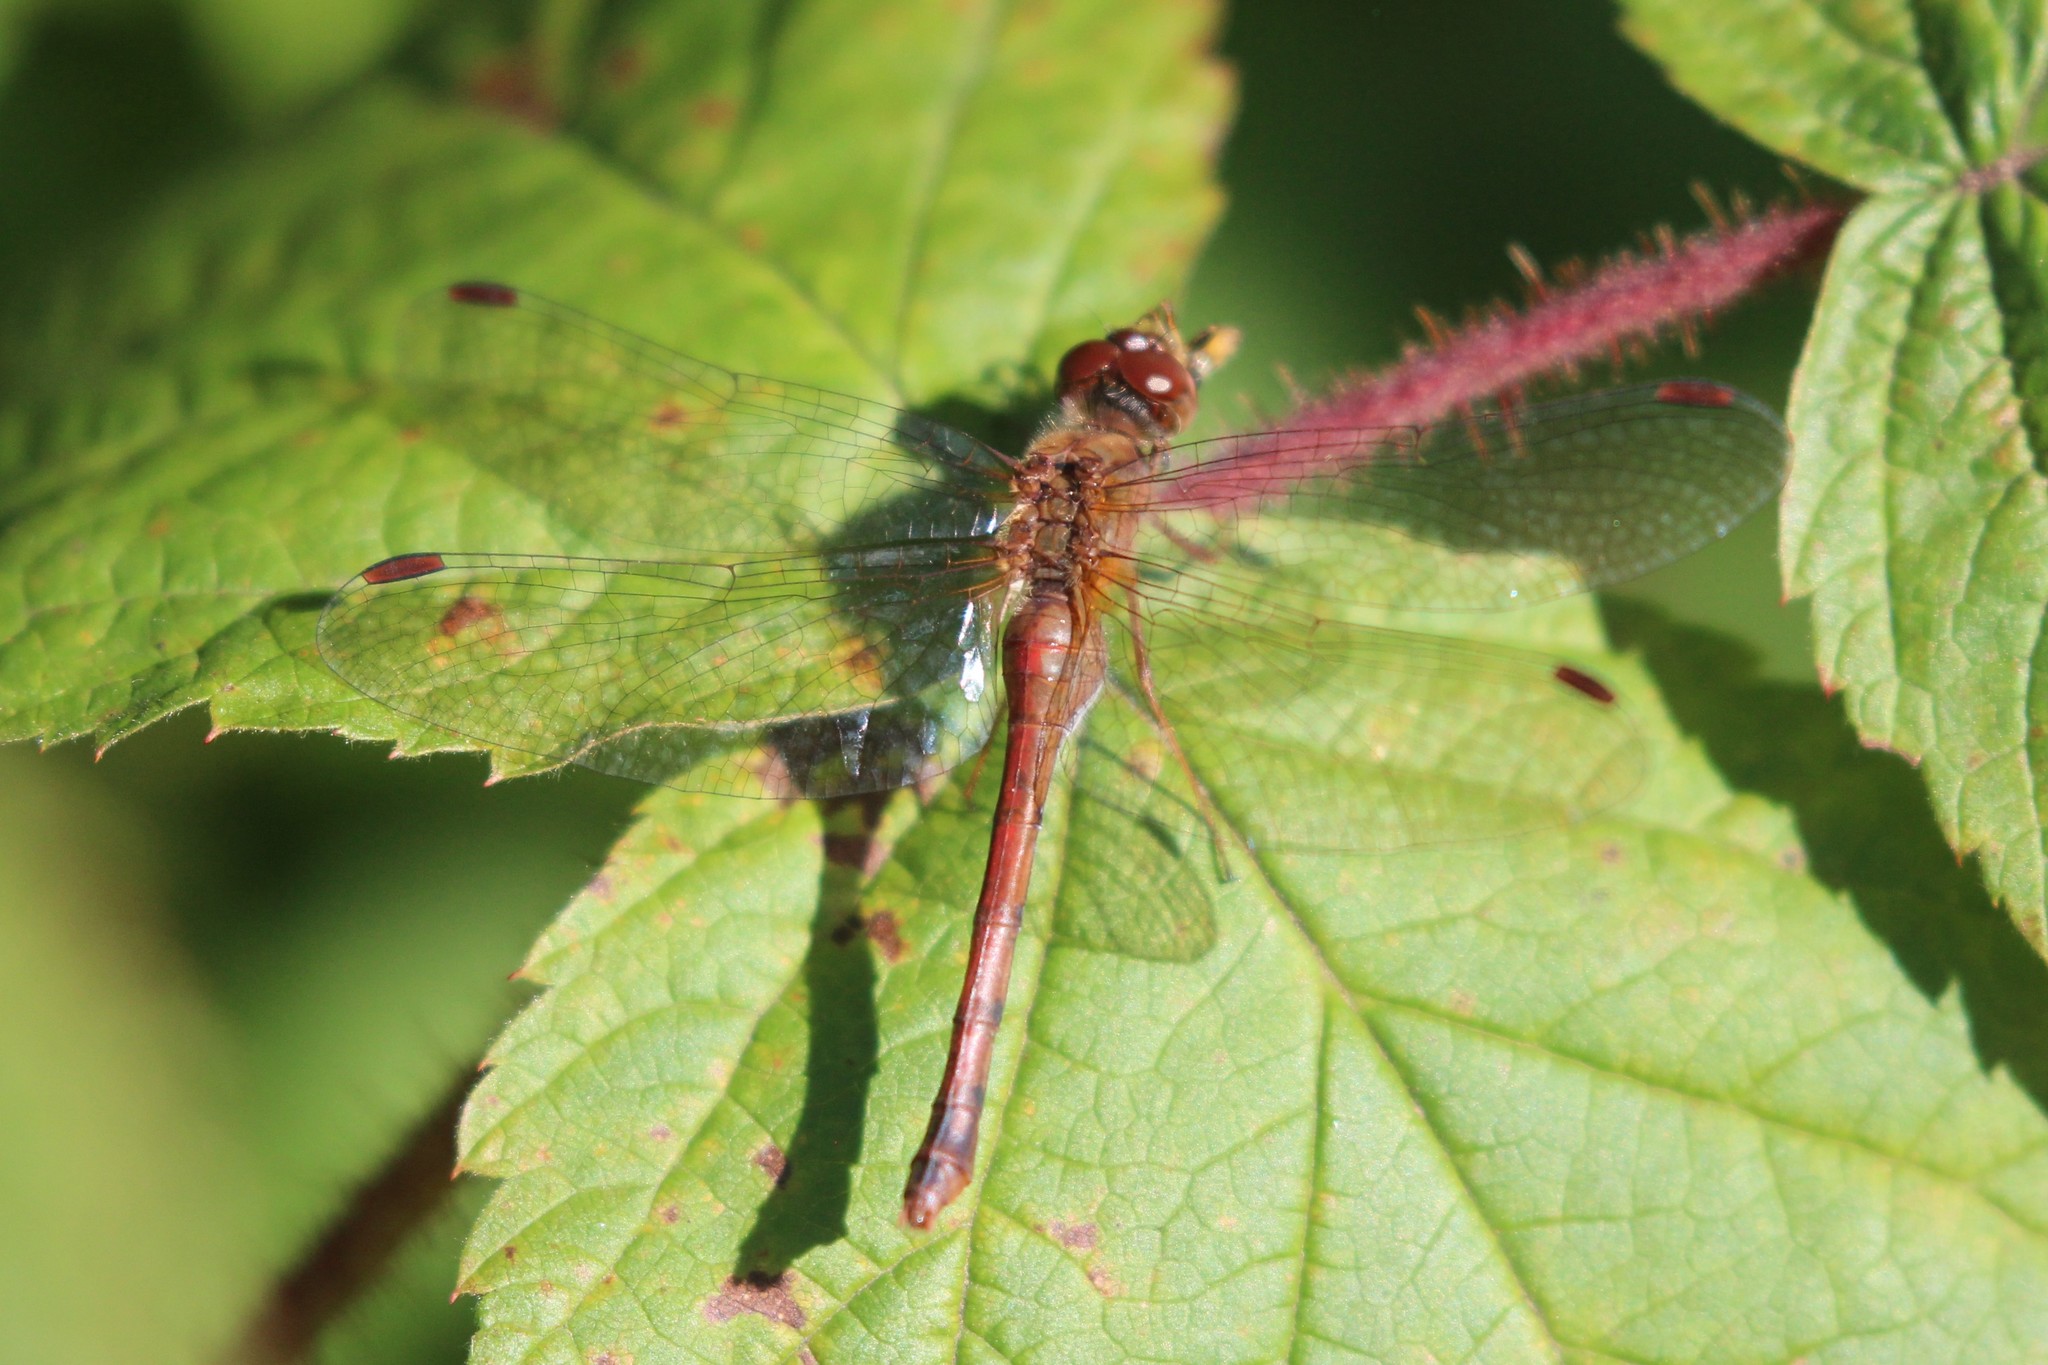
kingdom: Animalia
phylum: Arthropoda
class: Insecta
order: Odonata
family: Libellulidae
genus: Sympetrum
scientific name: Sympetrum vicinum
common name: Autumn meadowhawk
